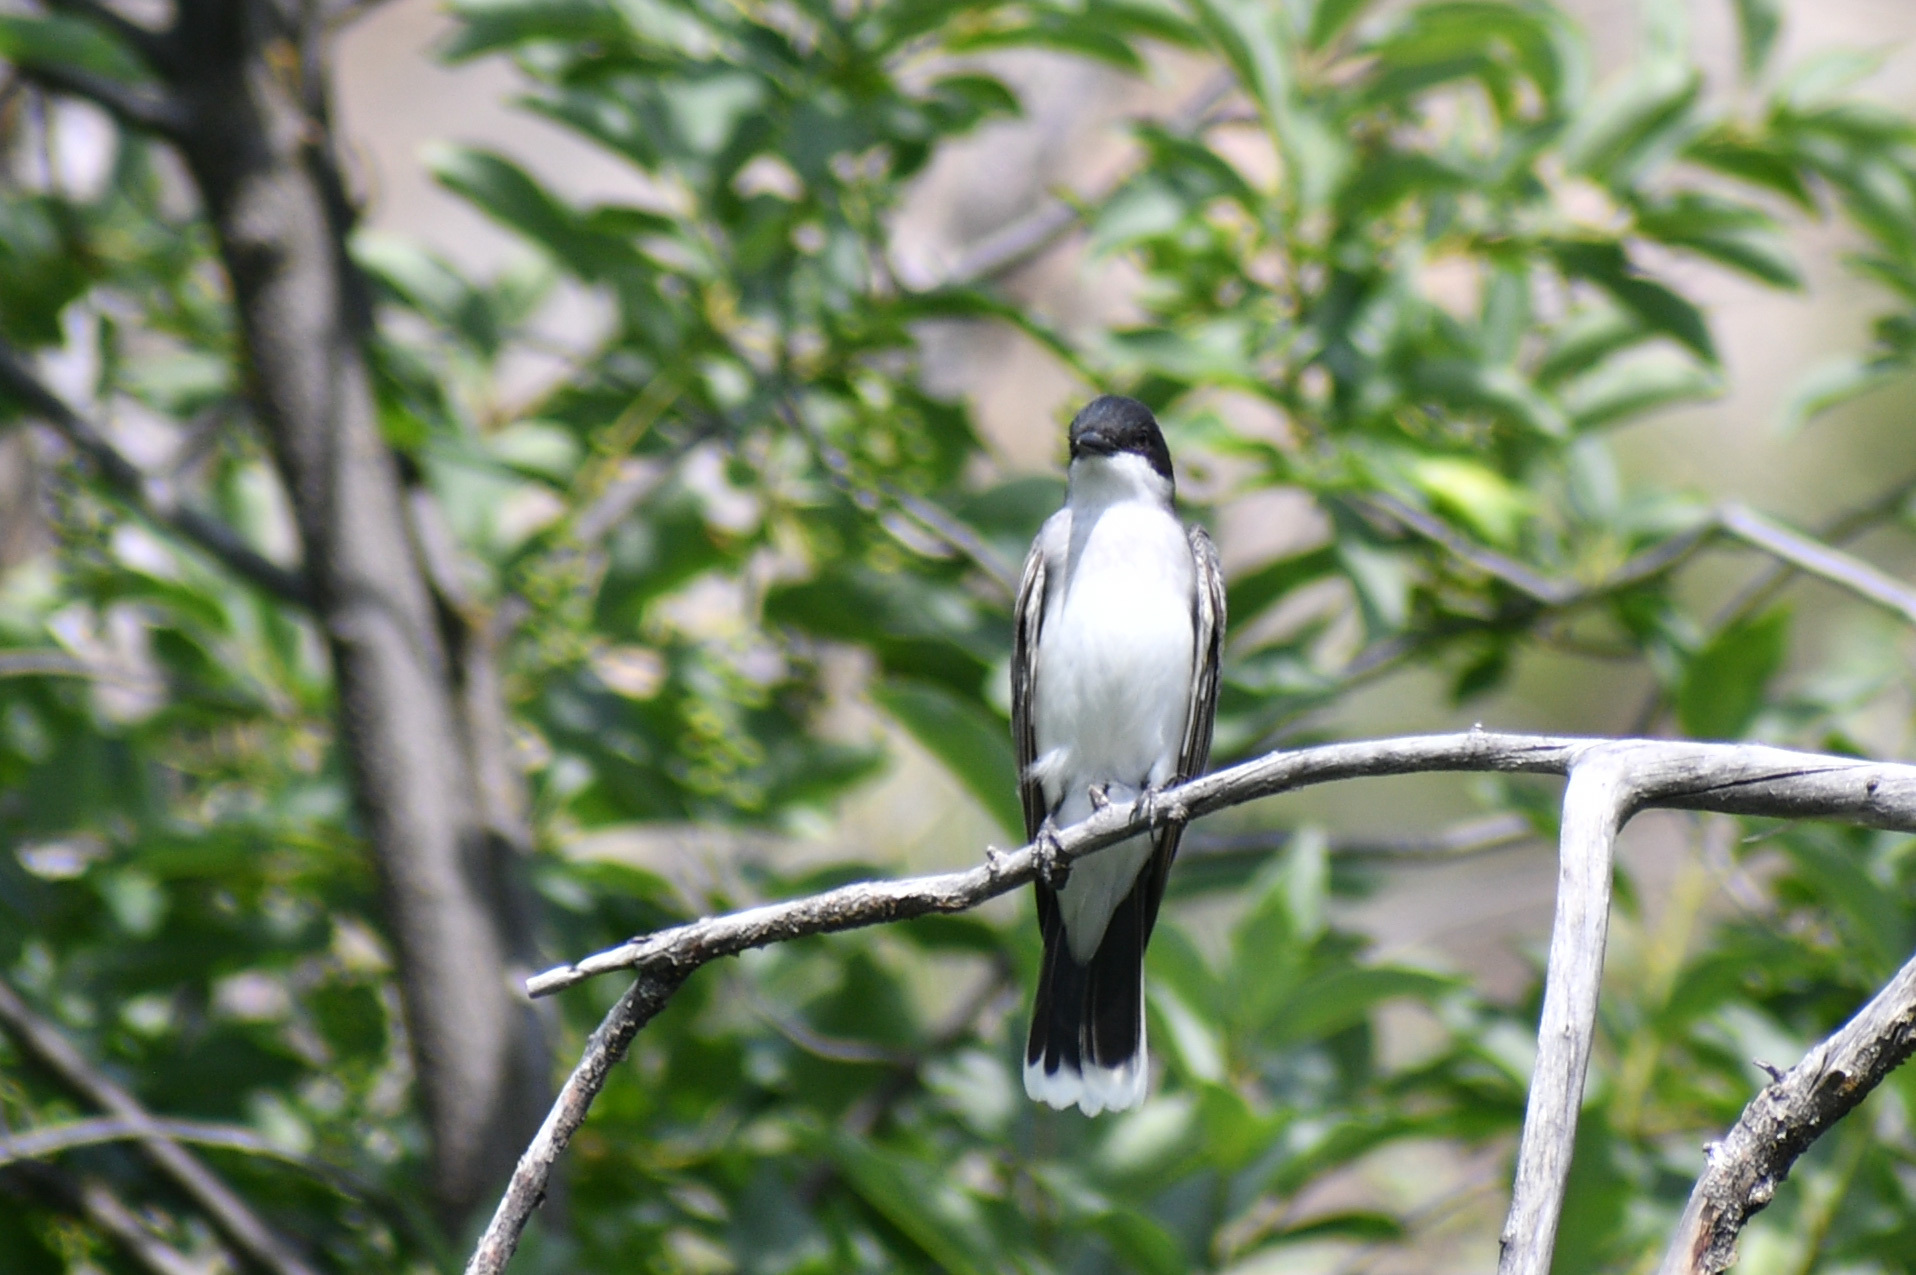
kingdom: Animalia
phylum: Chordata
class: Aves
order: Passeriformes
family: Tyrannidae
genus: Tyrannus
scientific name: Tyrannus tyrannus
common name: Eastern kingbird
